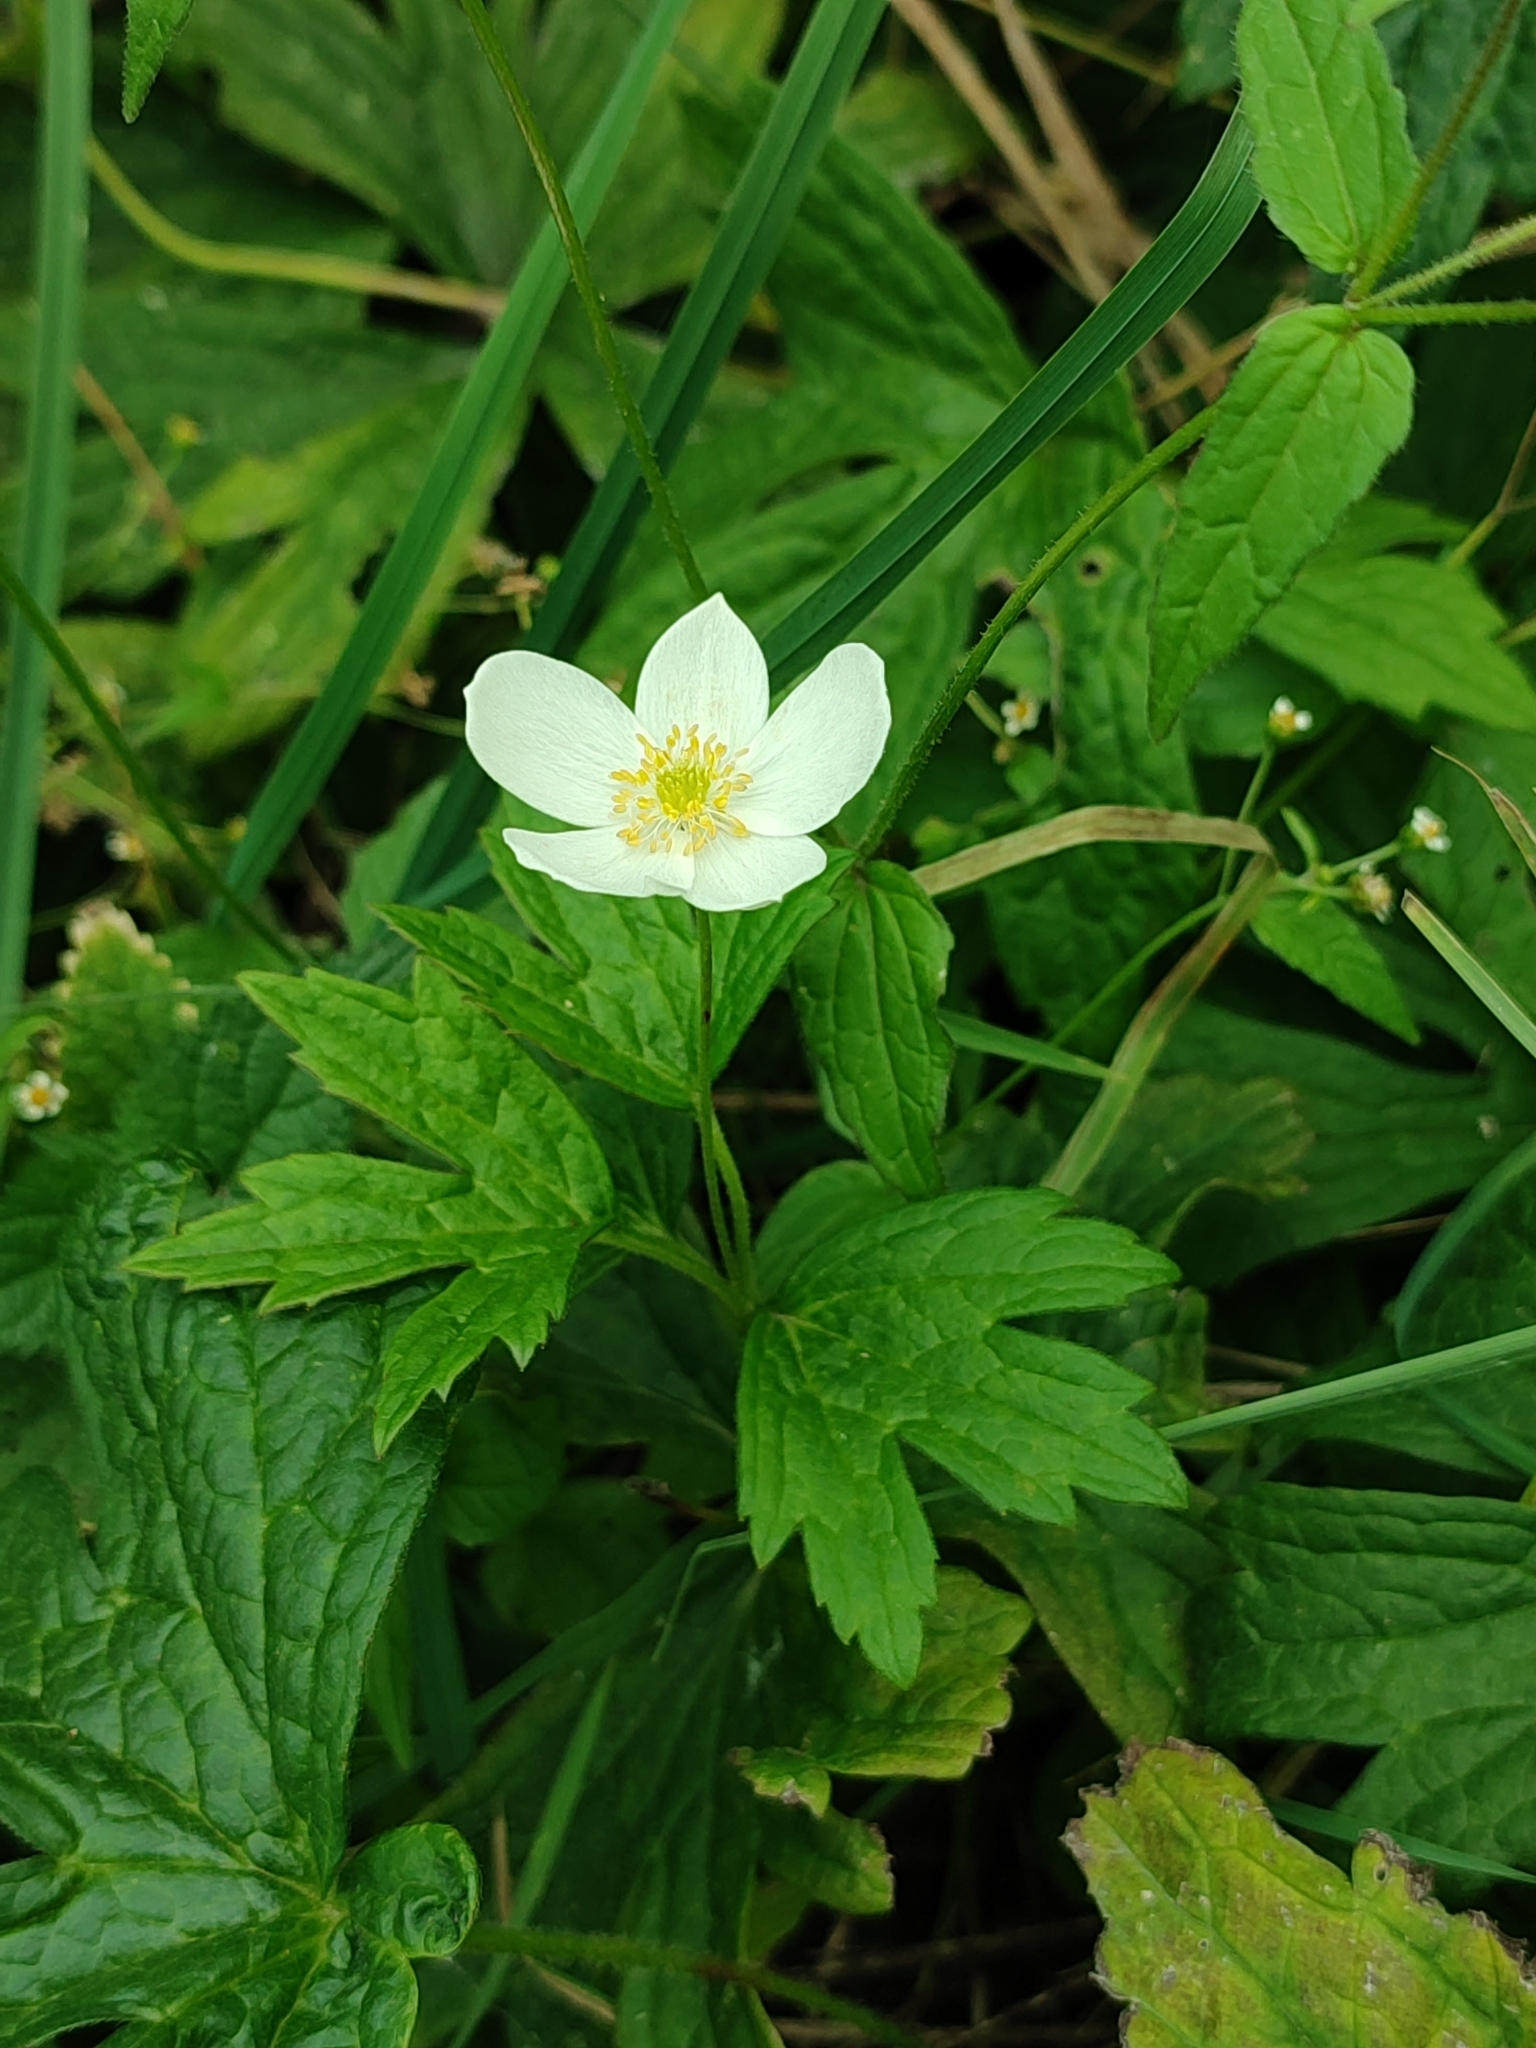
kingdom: Plantae
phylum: Tracheophyta
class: Magnoliopsida
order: Ranunculales
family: Ranunculaceae
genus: Anemonastrum
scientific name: Anemonastrum canadense
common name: Canada anemone
